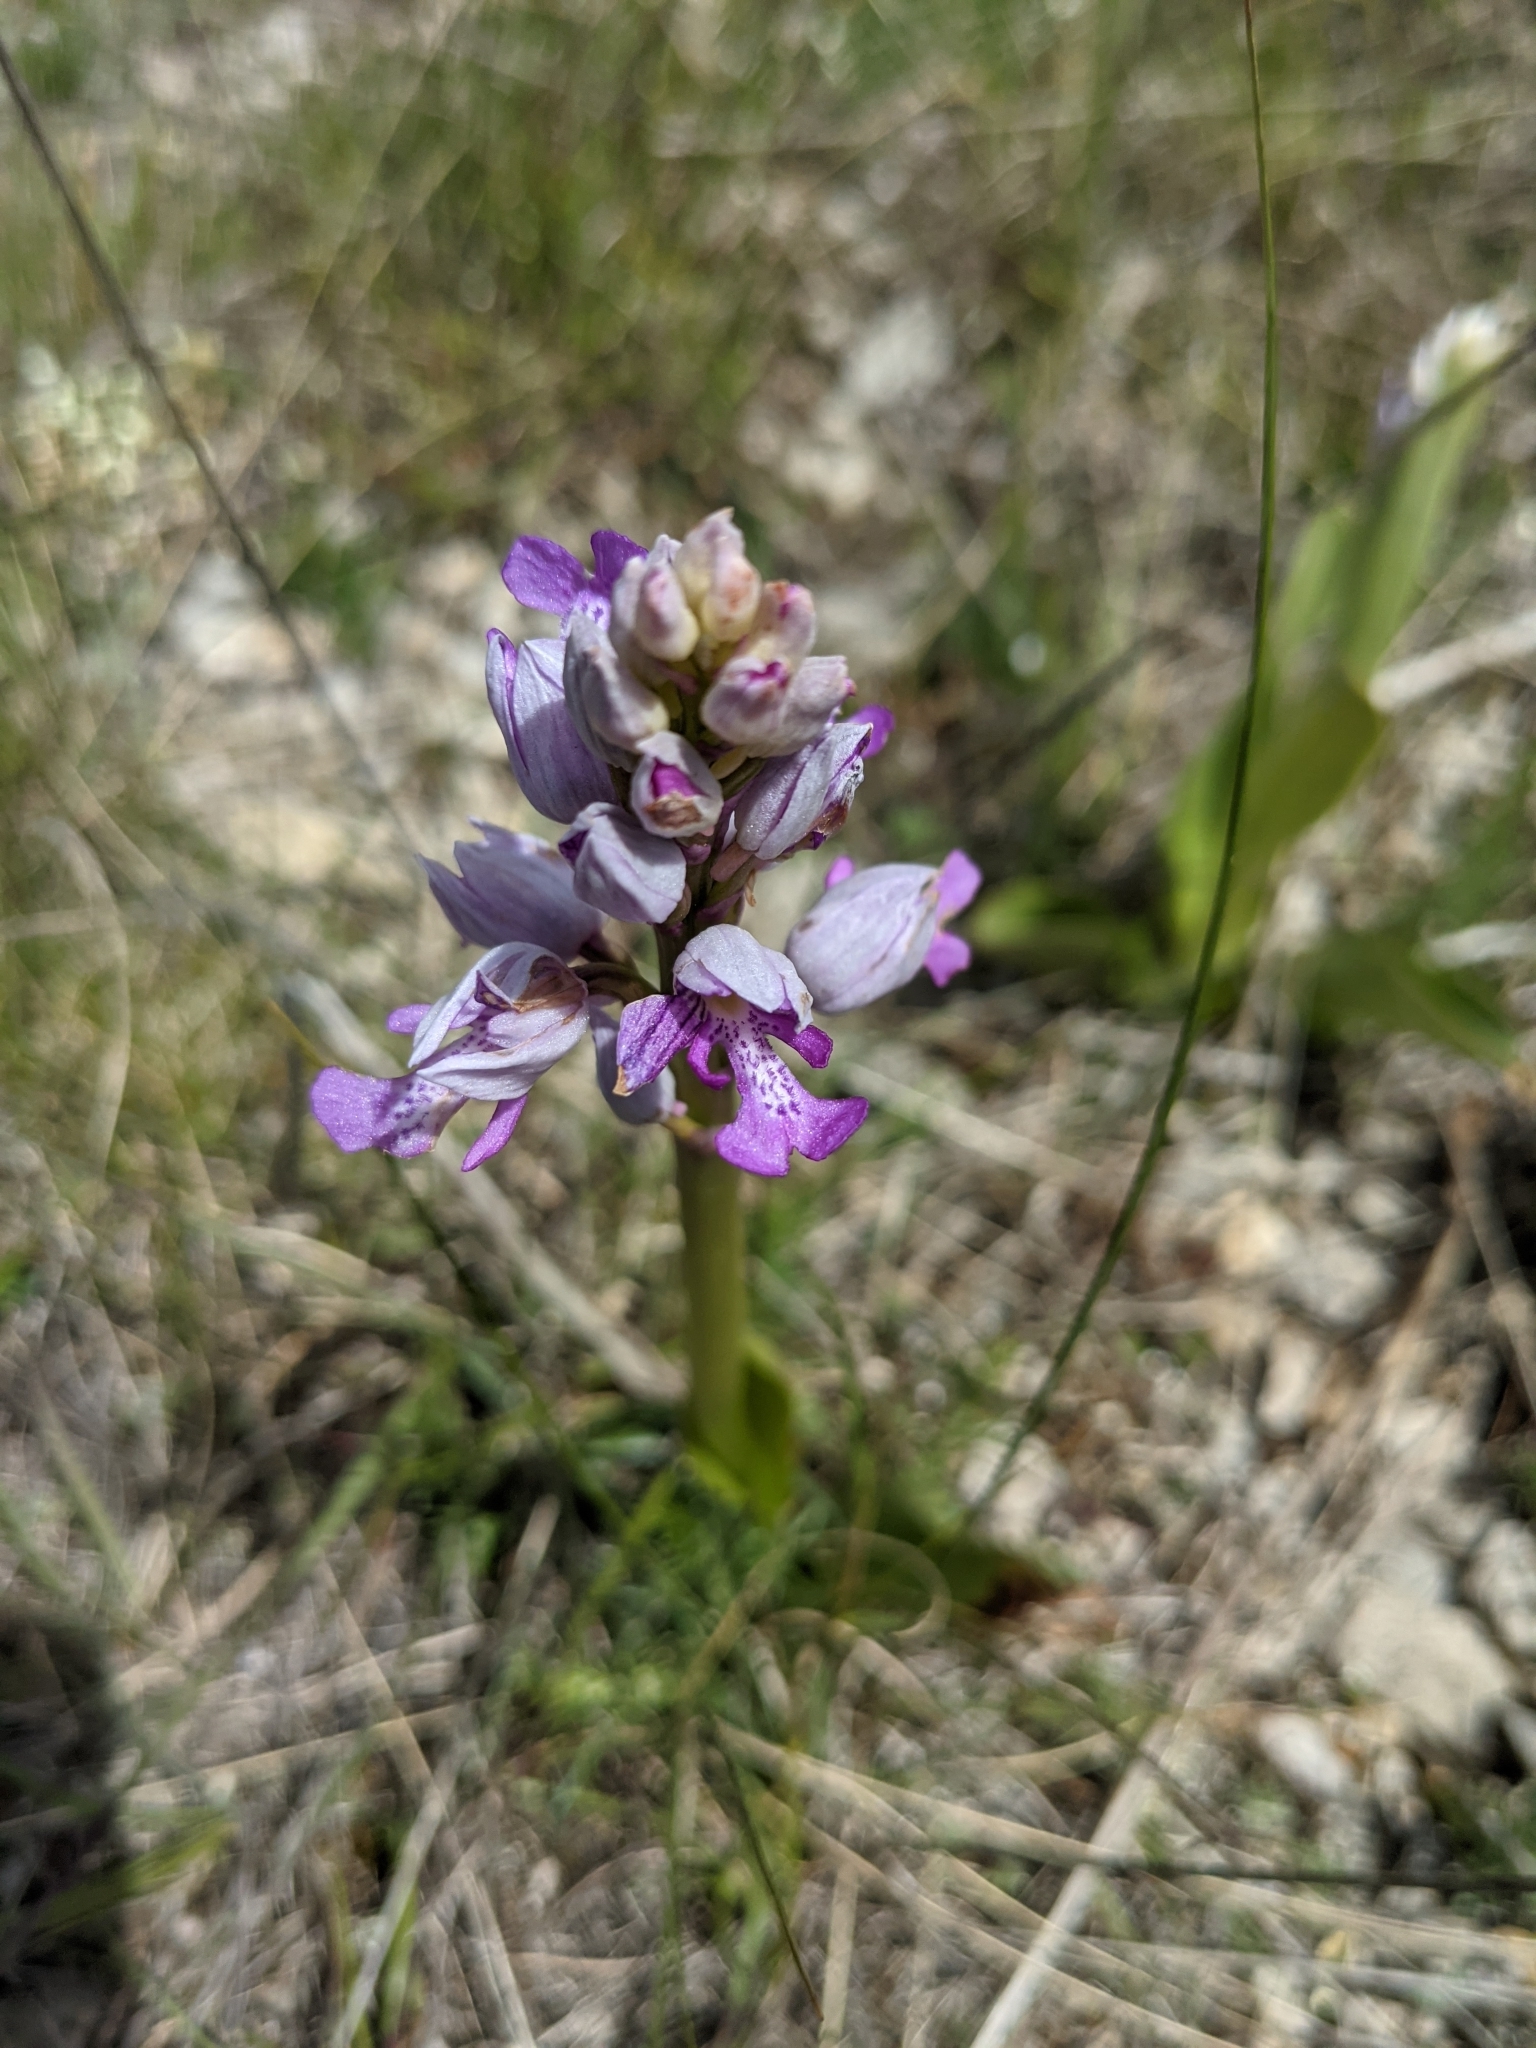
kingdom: Plantae
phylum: Tracheophyta
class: Liliopsida
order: Asparagales
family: Orchidaceae
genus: Orchis
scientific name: Orchis militaris
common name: Military orchid
